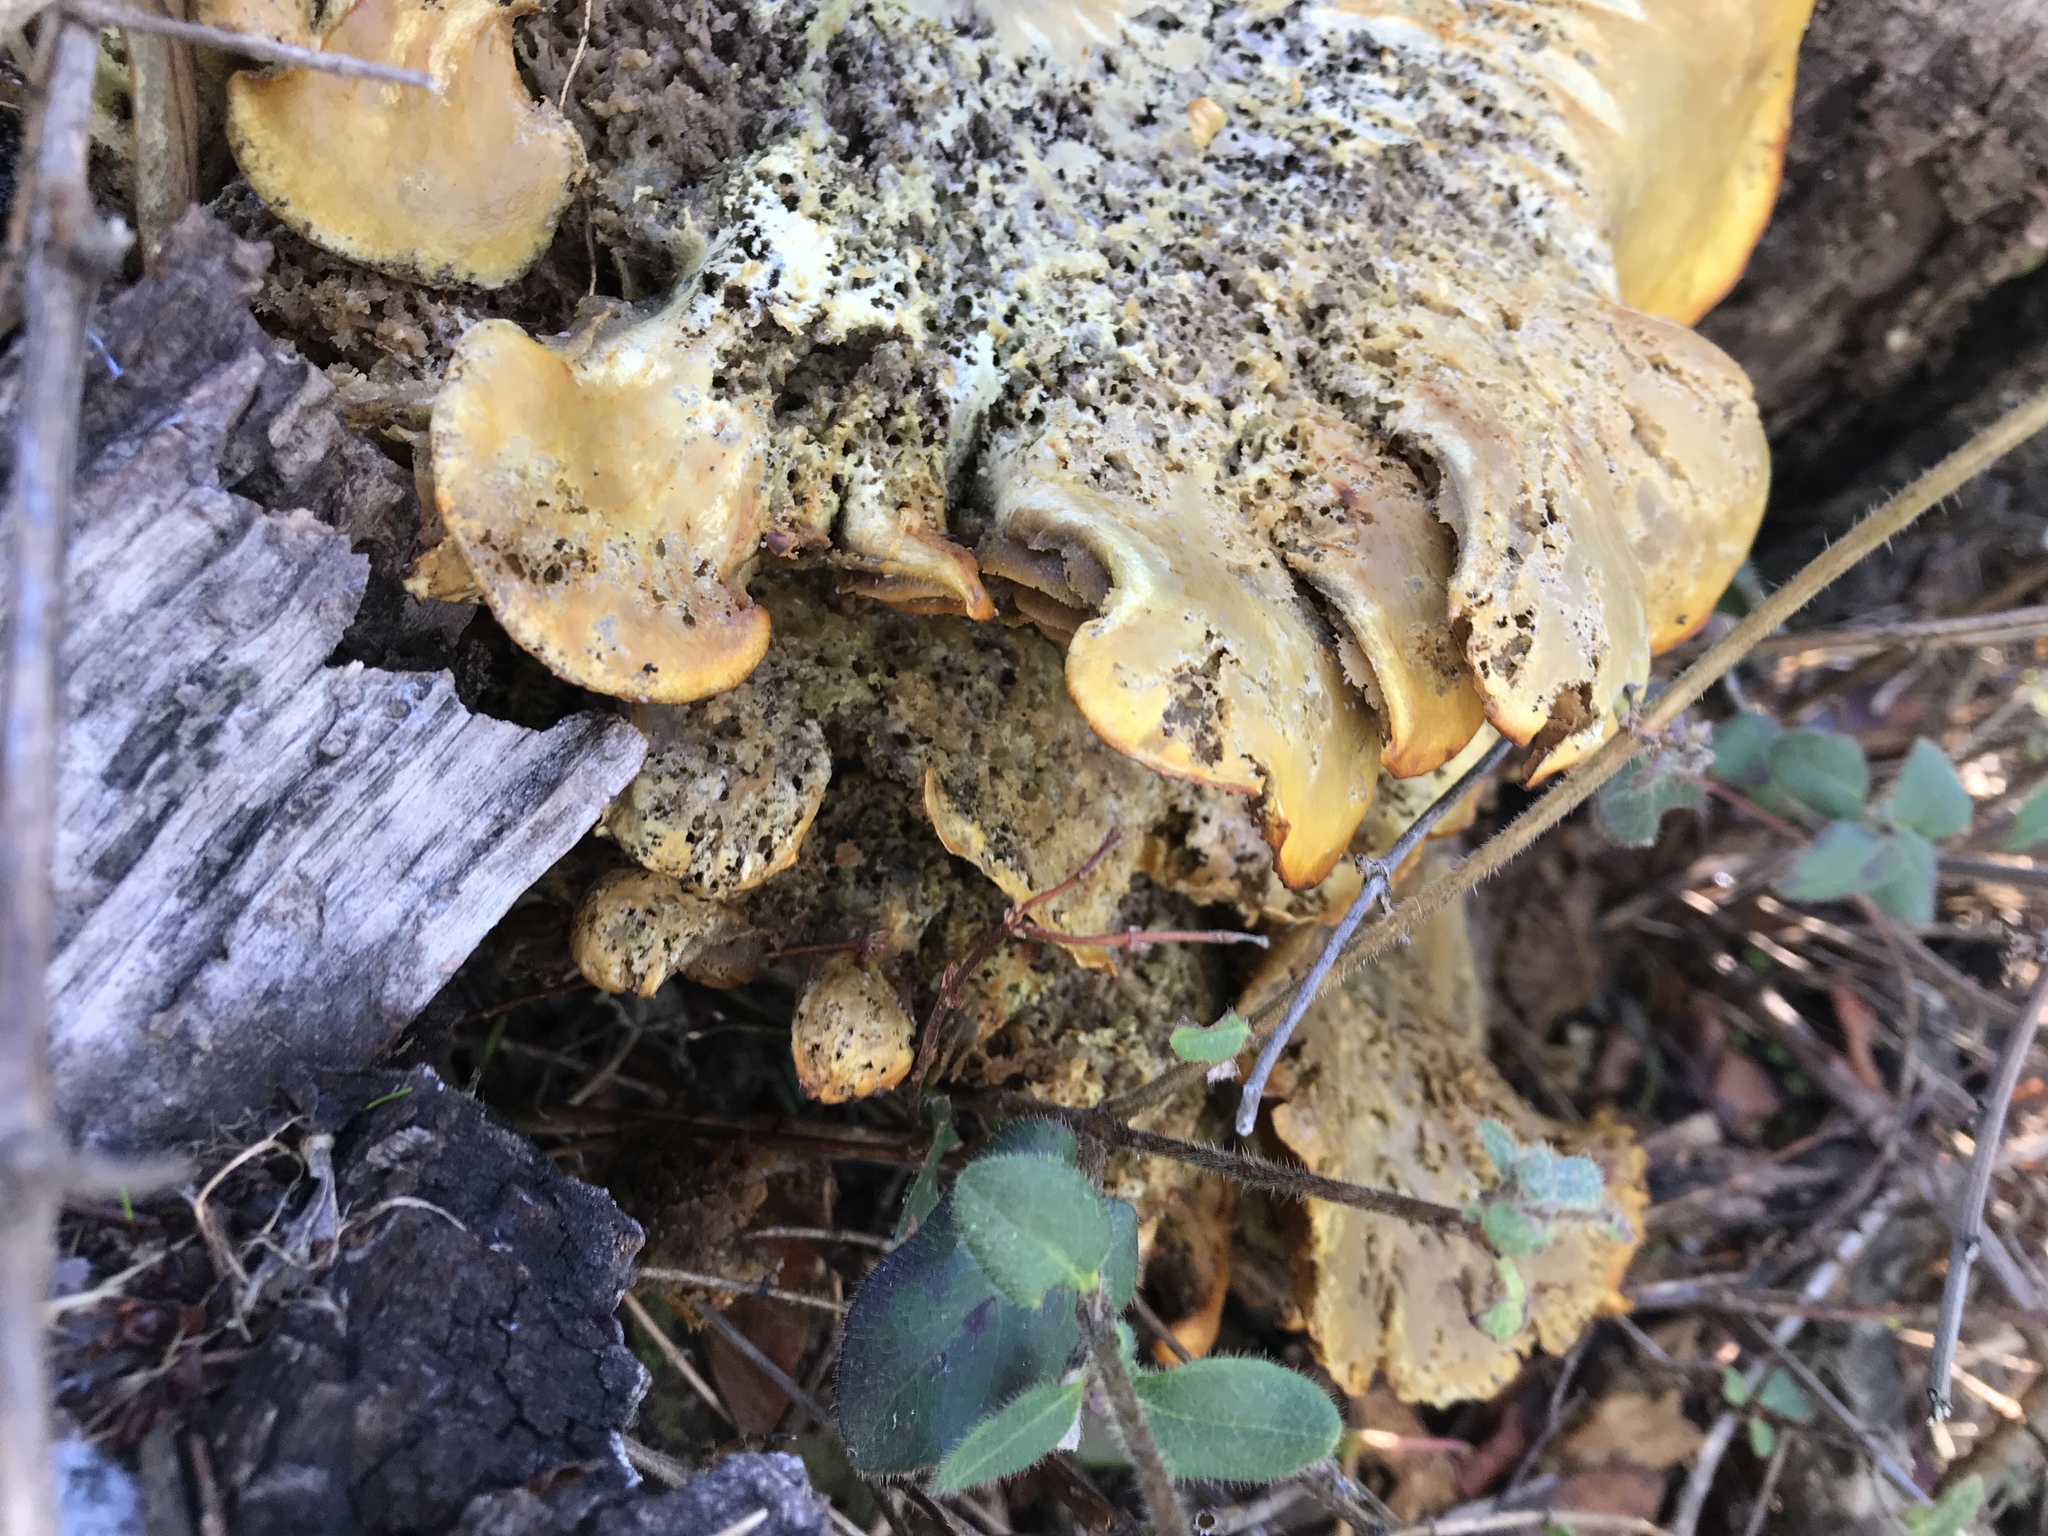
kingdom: Fungi
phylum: Basidiomycota
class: Agaricomycetes
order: Agaricales
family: Omphalotaceae
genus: Omphalotus
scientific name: Omphalotus olivascens
